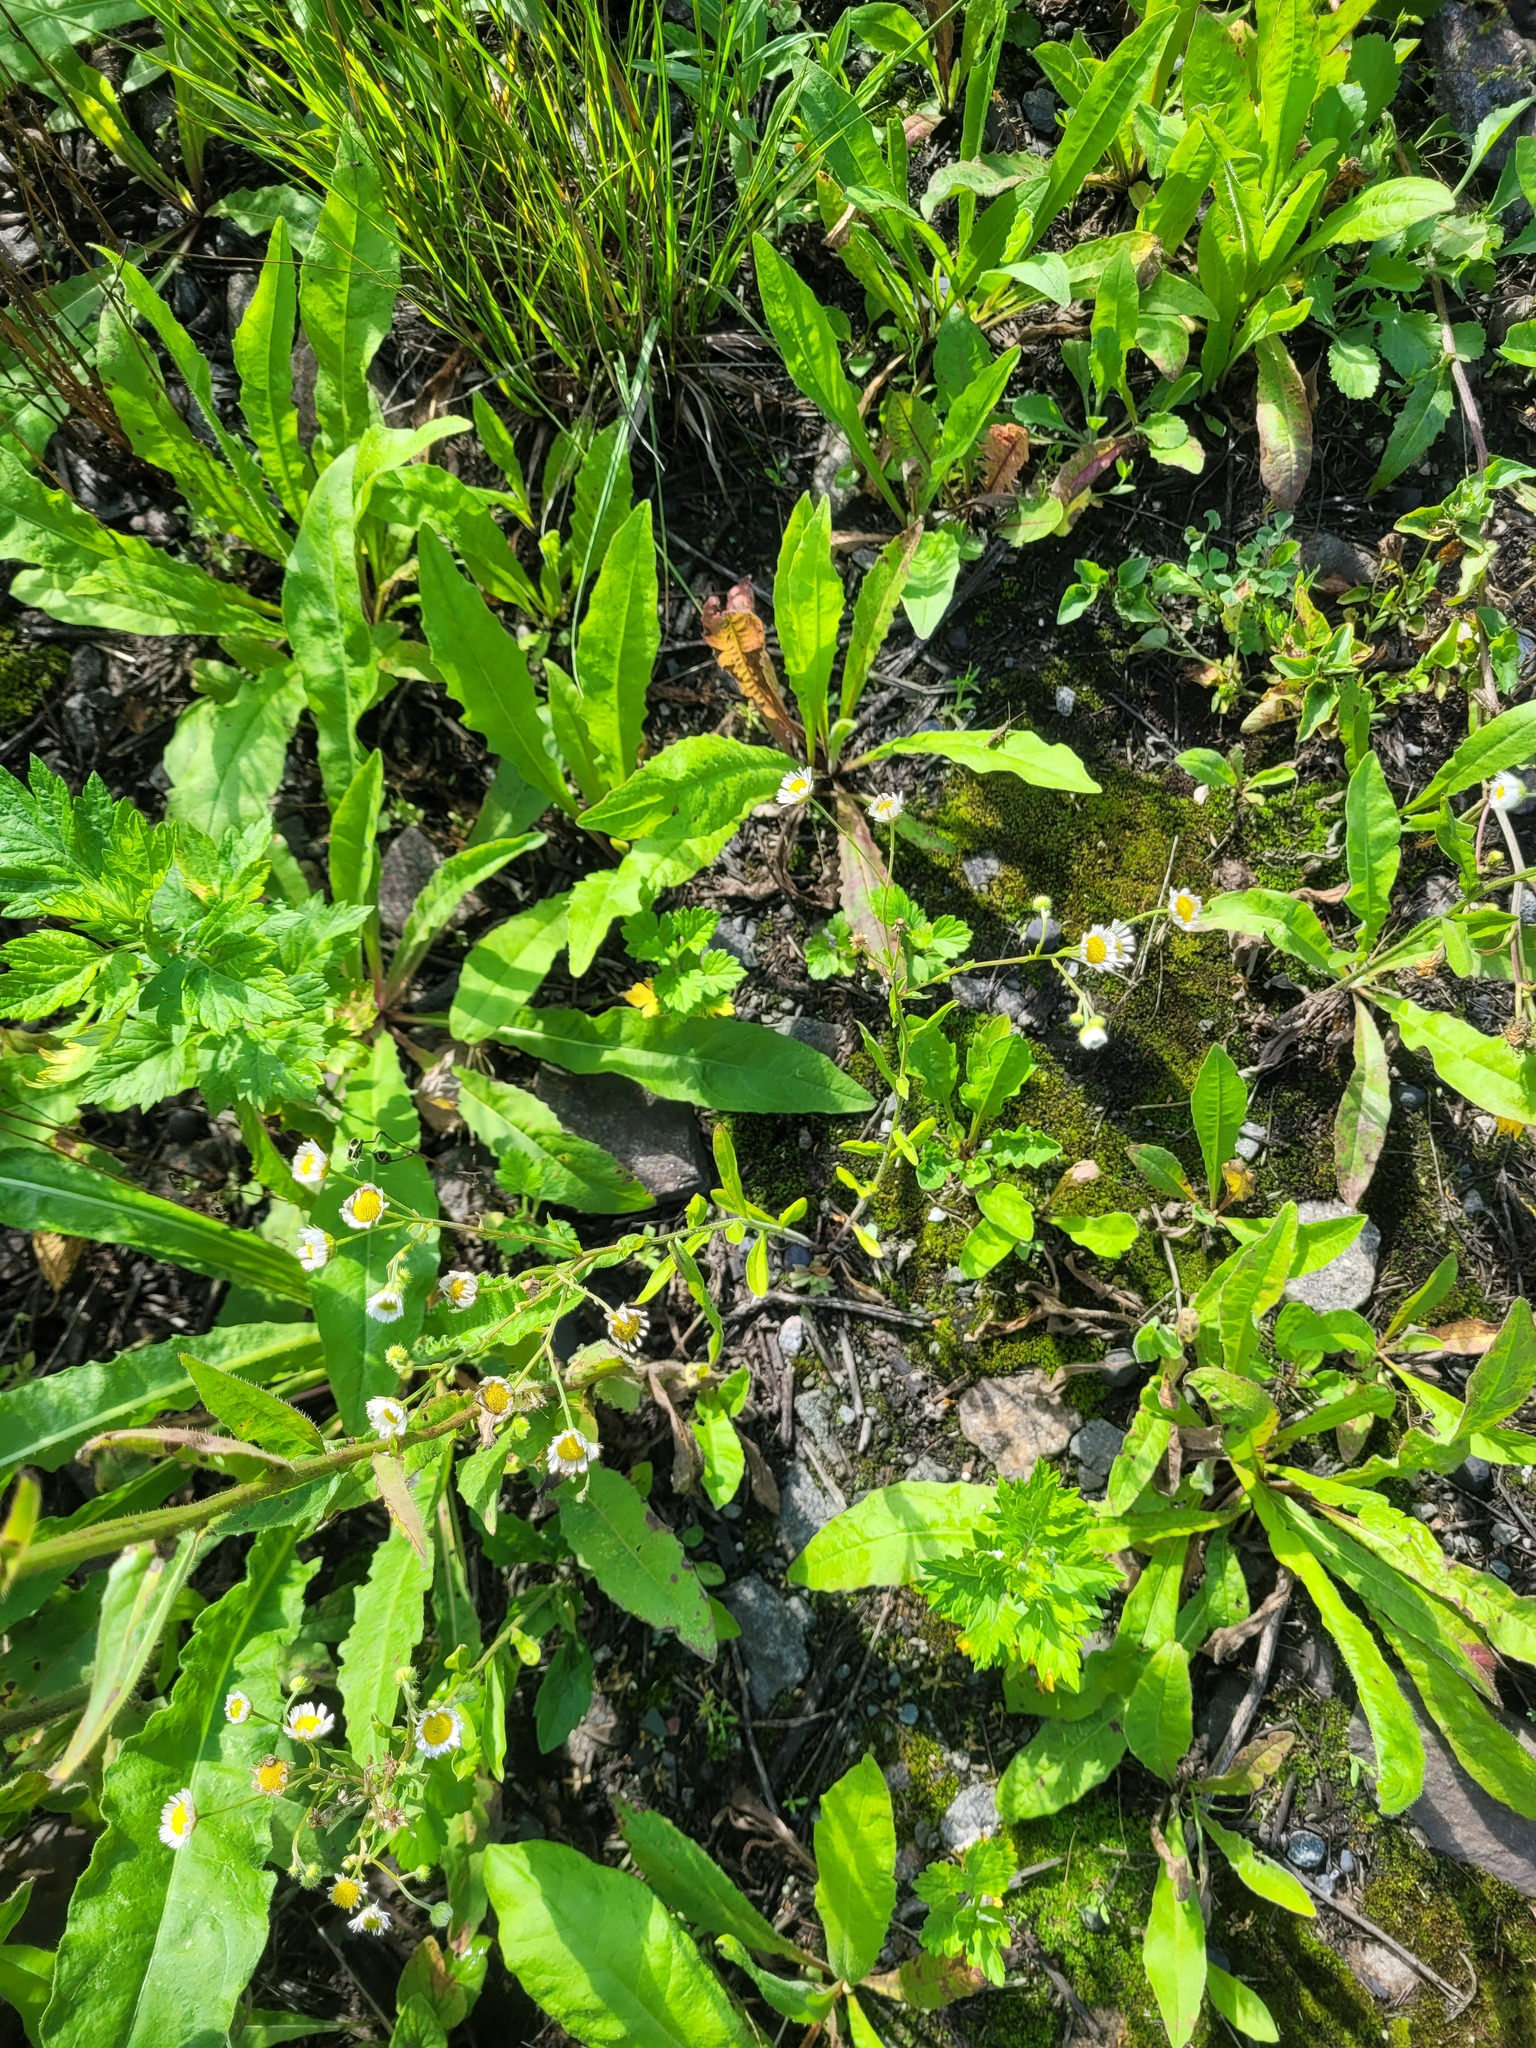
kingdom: Plantae
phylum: Tracheophyta
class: Magnoliopsida
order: Asterales
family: Asteraceae
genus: Erigeron
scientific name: Erigeron annuus
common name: Tall fleabane
